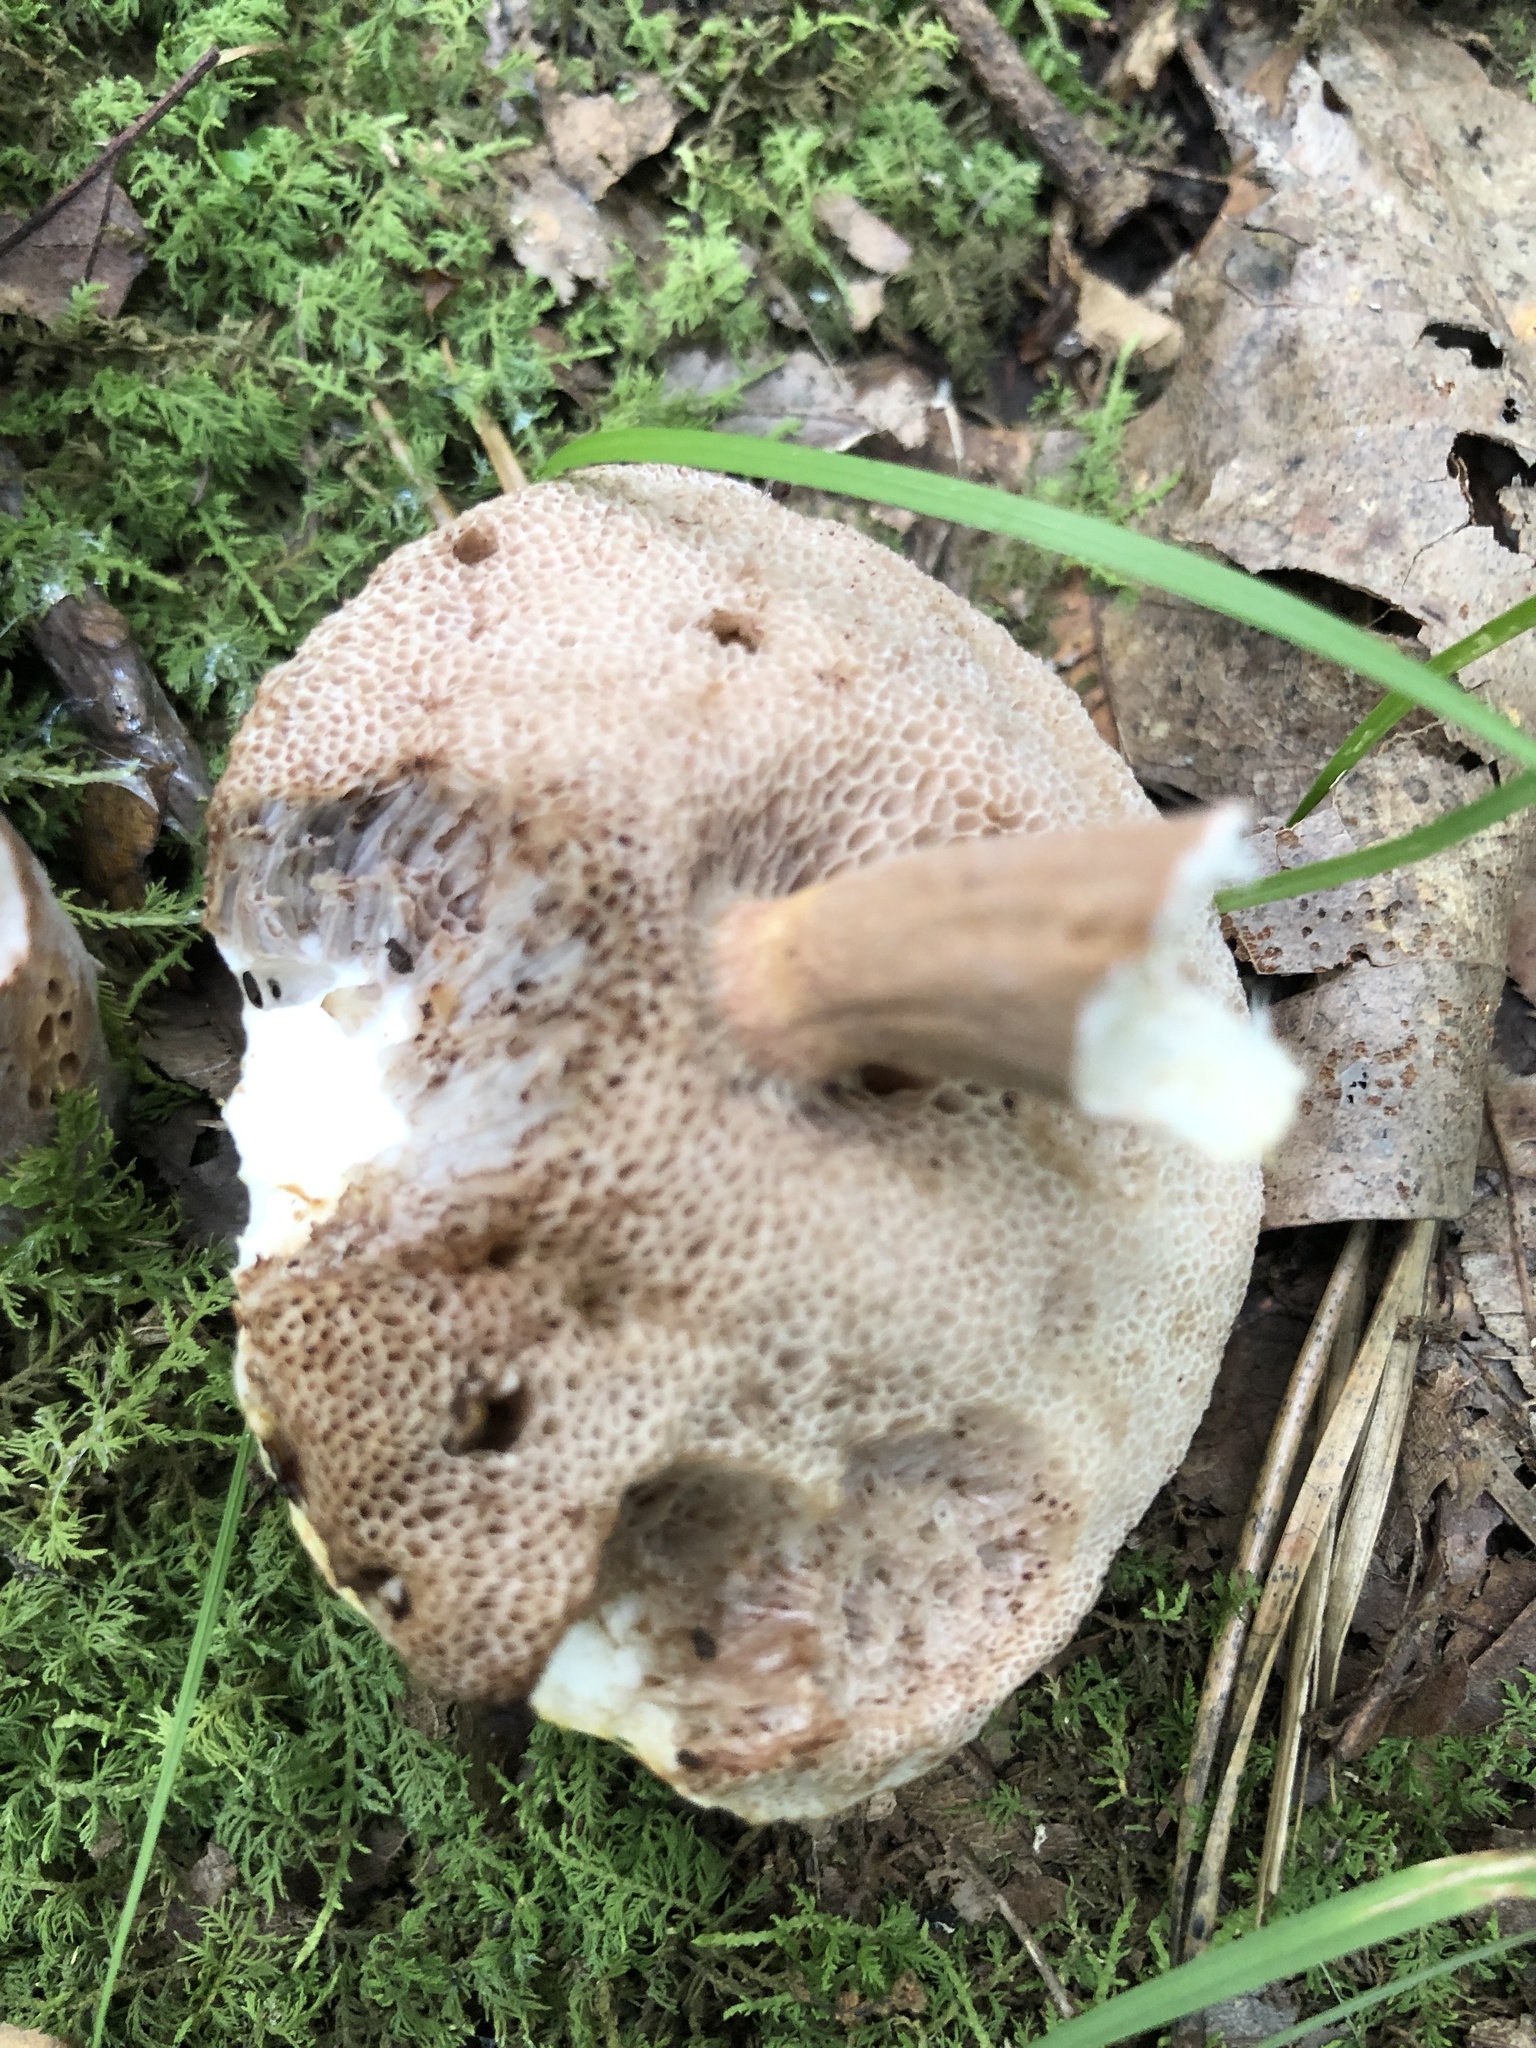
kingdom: Fungi
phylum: Basidiomycota
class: Agaricomycetes
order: Boletales
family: Boletaceae
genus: Austroboletus
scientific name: Austroboletus gracilis
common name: Graceful bolete
